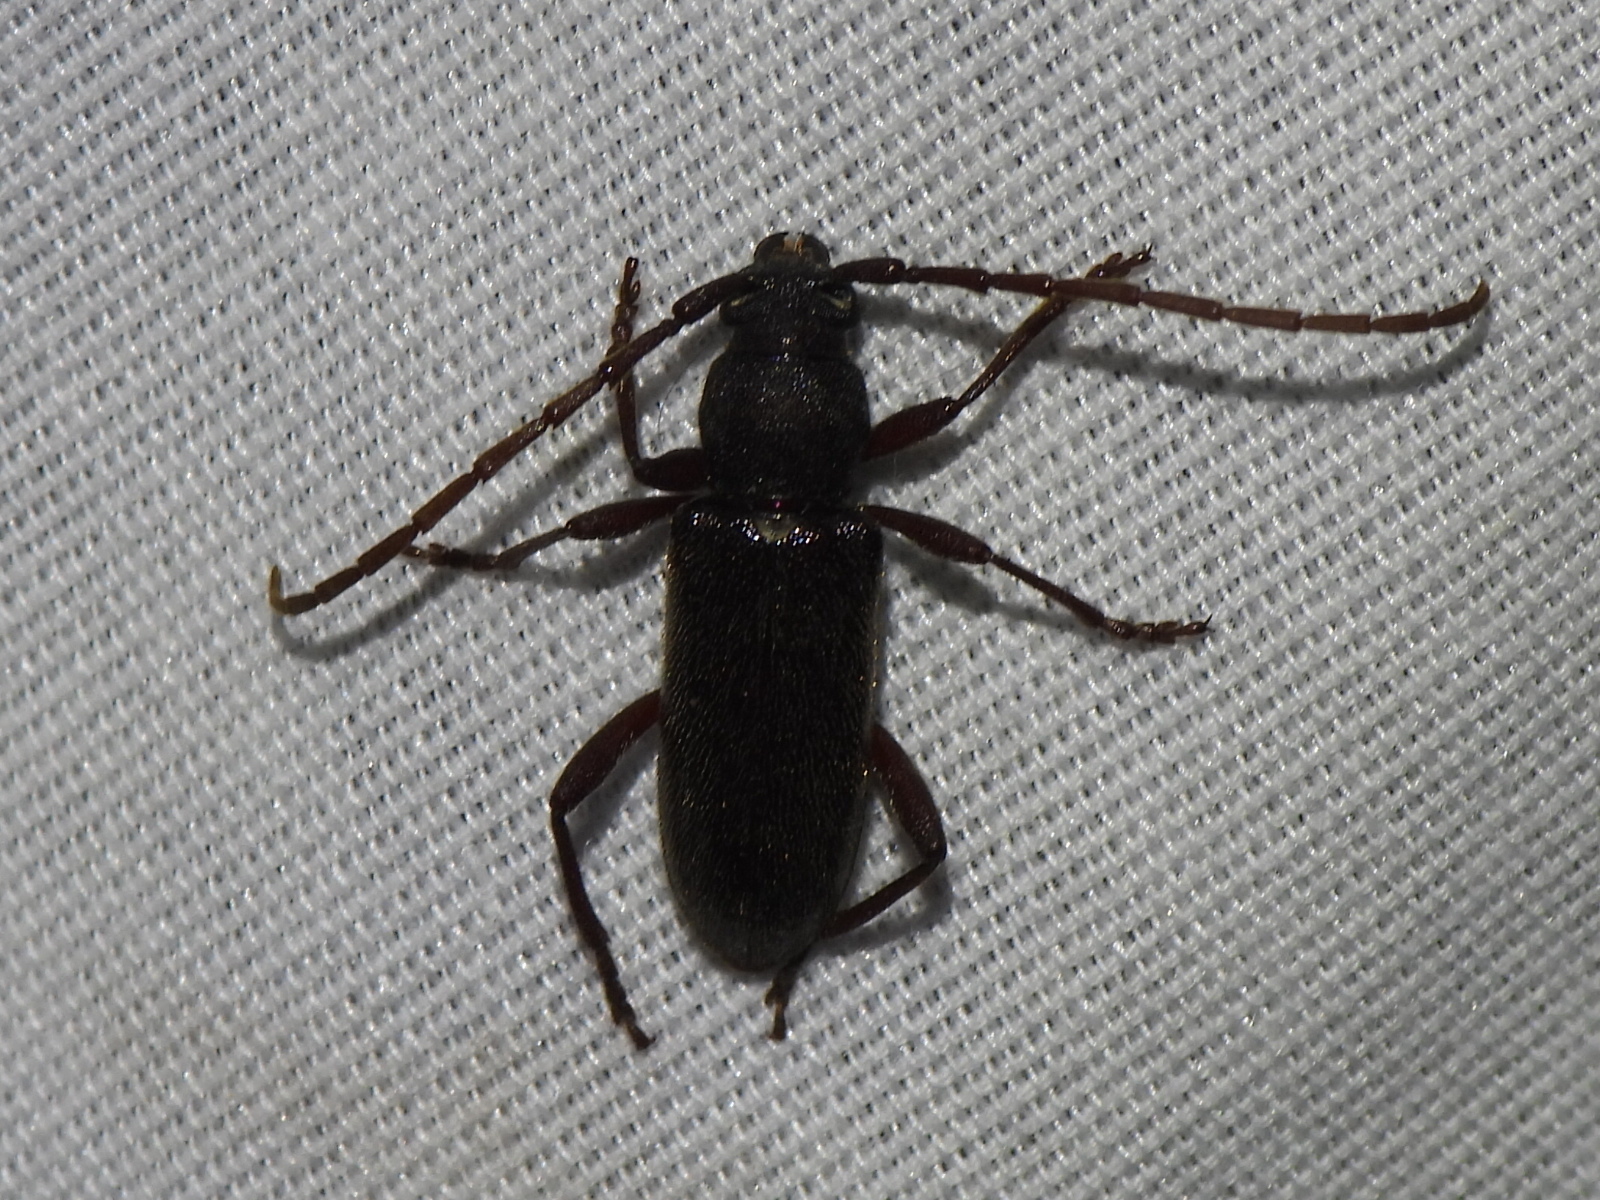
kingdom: Animalia
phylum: Arthropoda
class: Insecta
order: Coleoptera
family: Cerambycidae
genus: Anelaphus
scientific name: Anelaphus moestus
